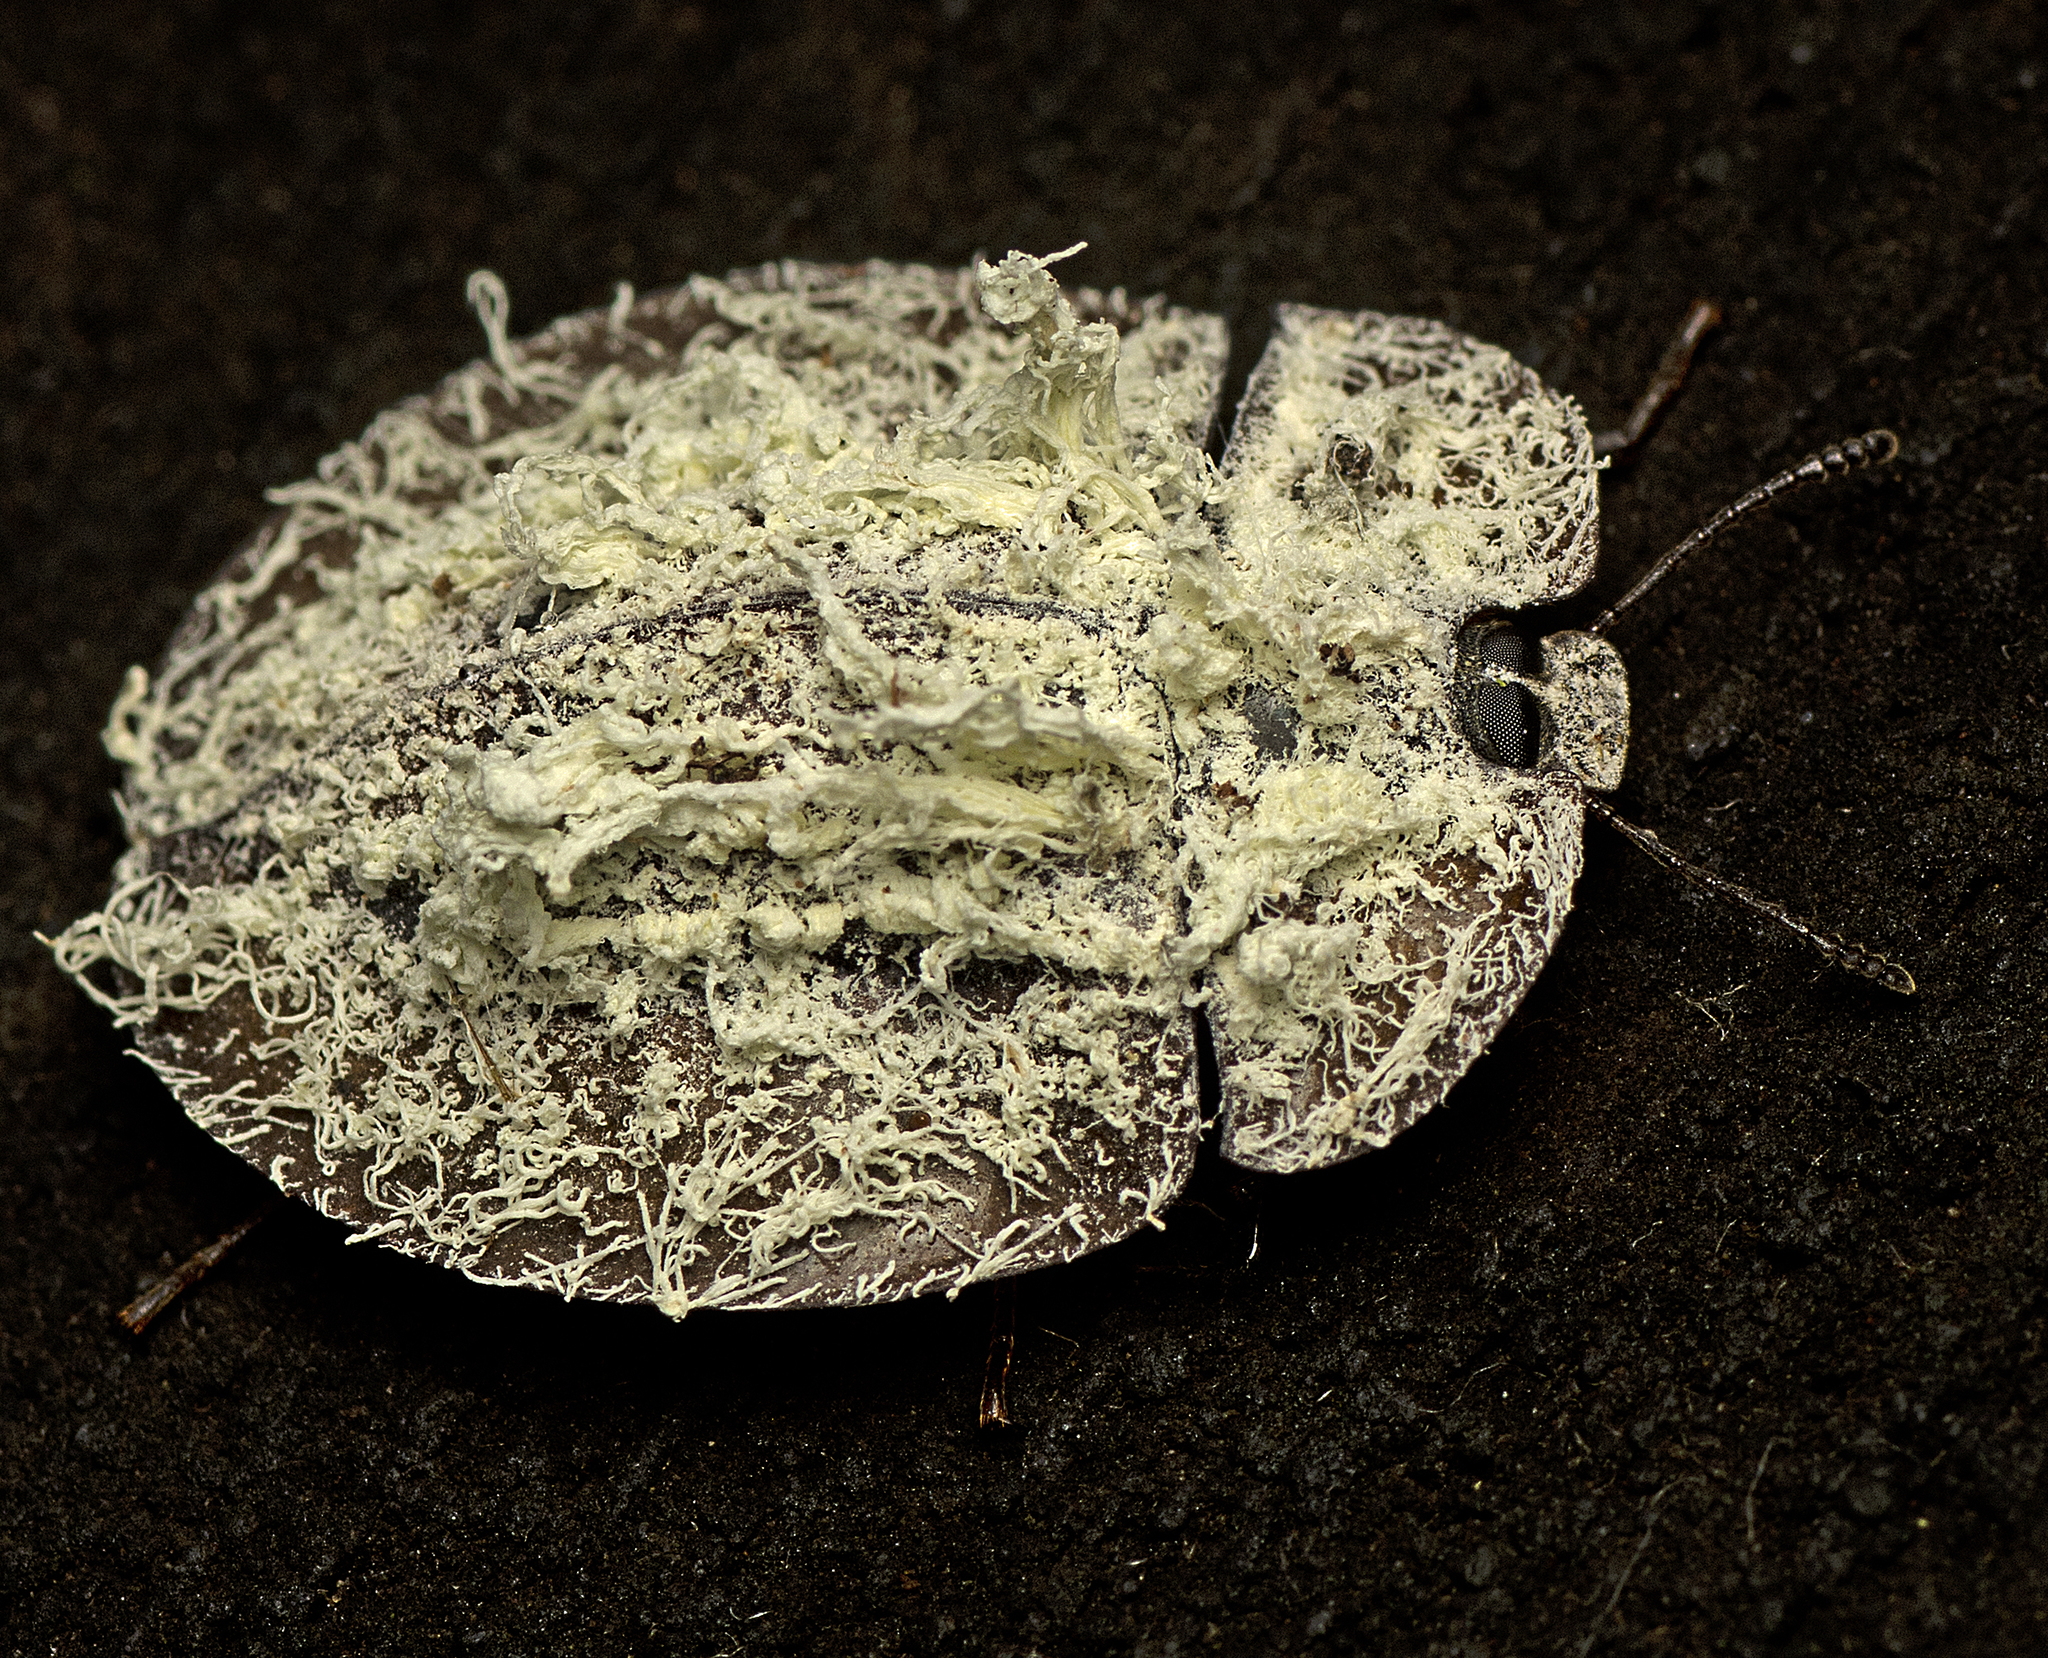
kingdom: Animalia
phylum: Arthropoda
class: Insecta
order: Coleoptera
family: Tenebrionidae
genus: Emcephalus
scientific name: Emcephalus
